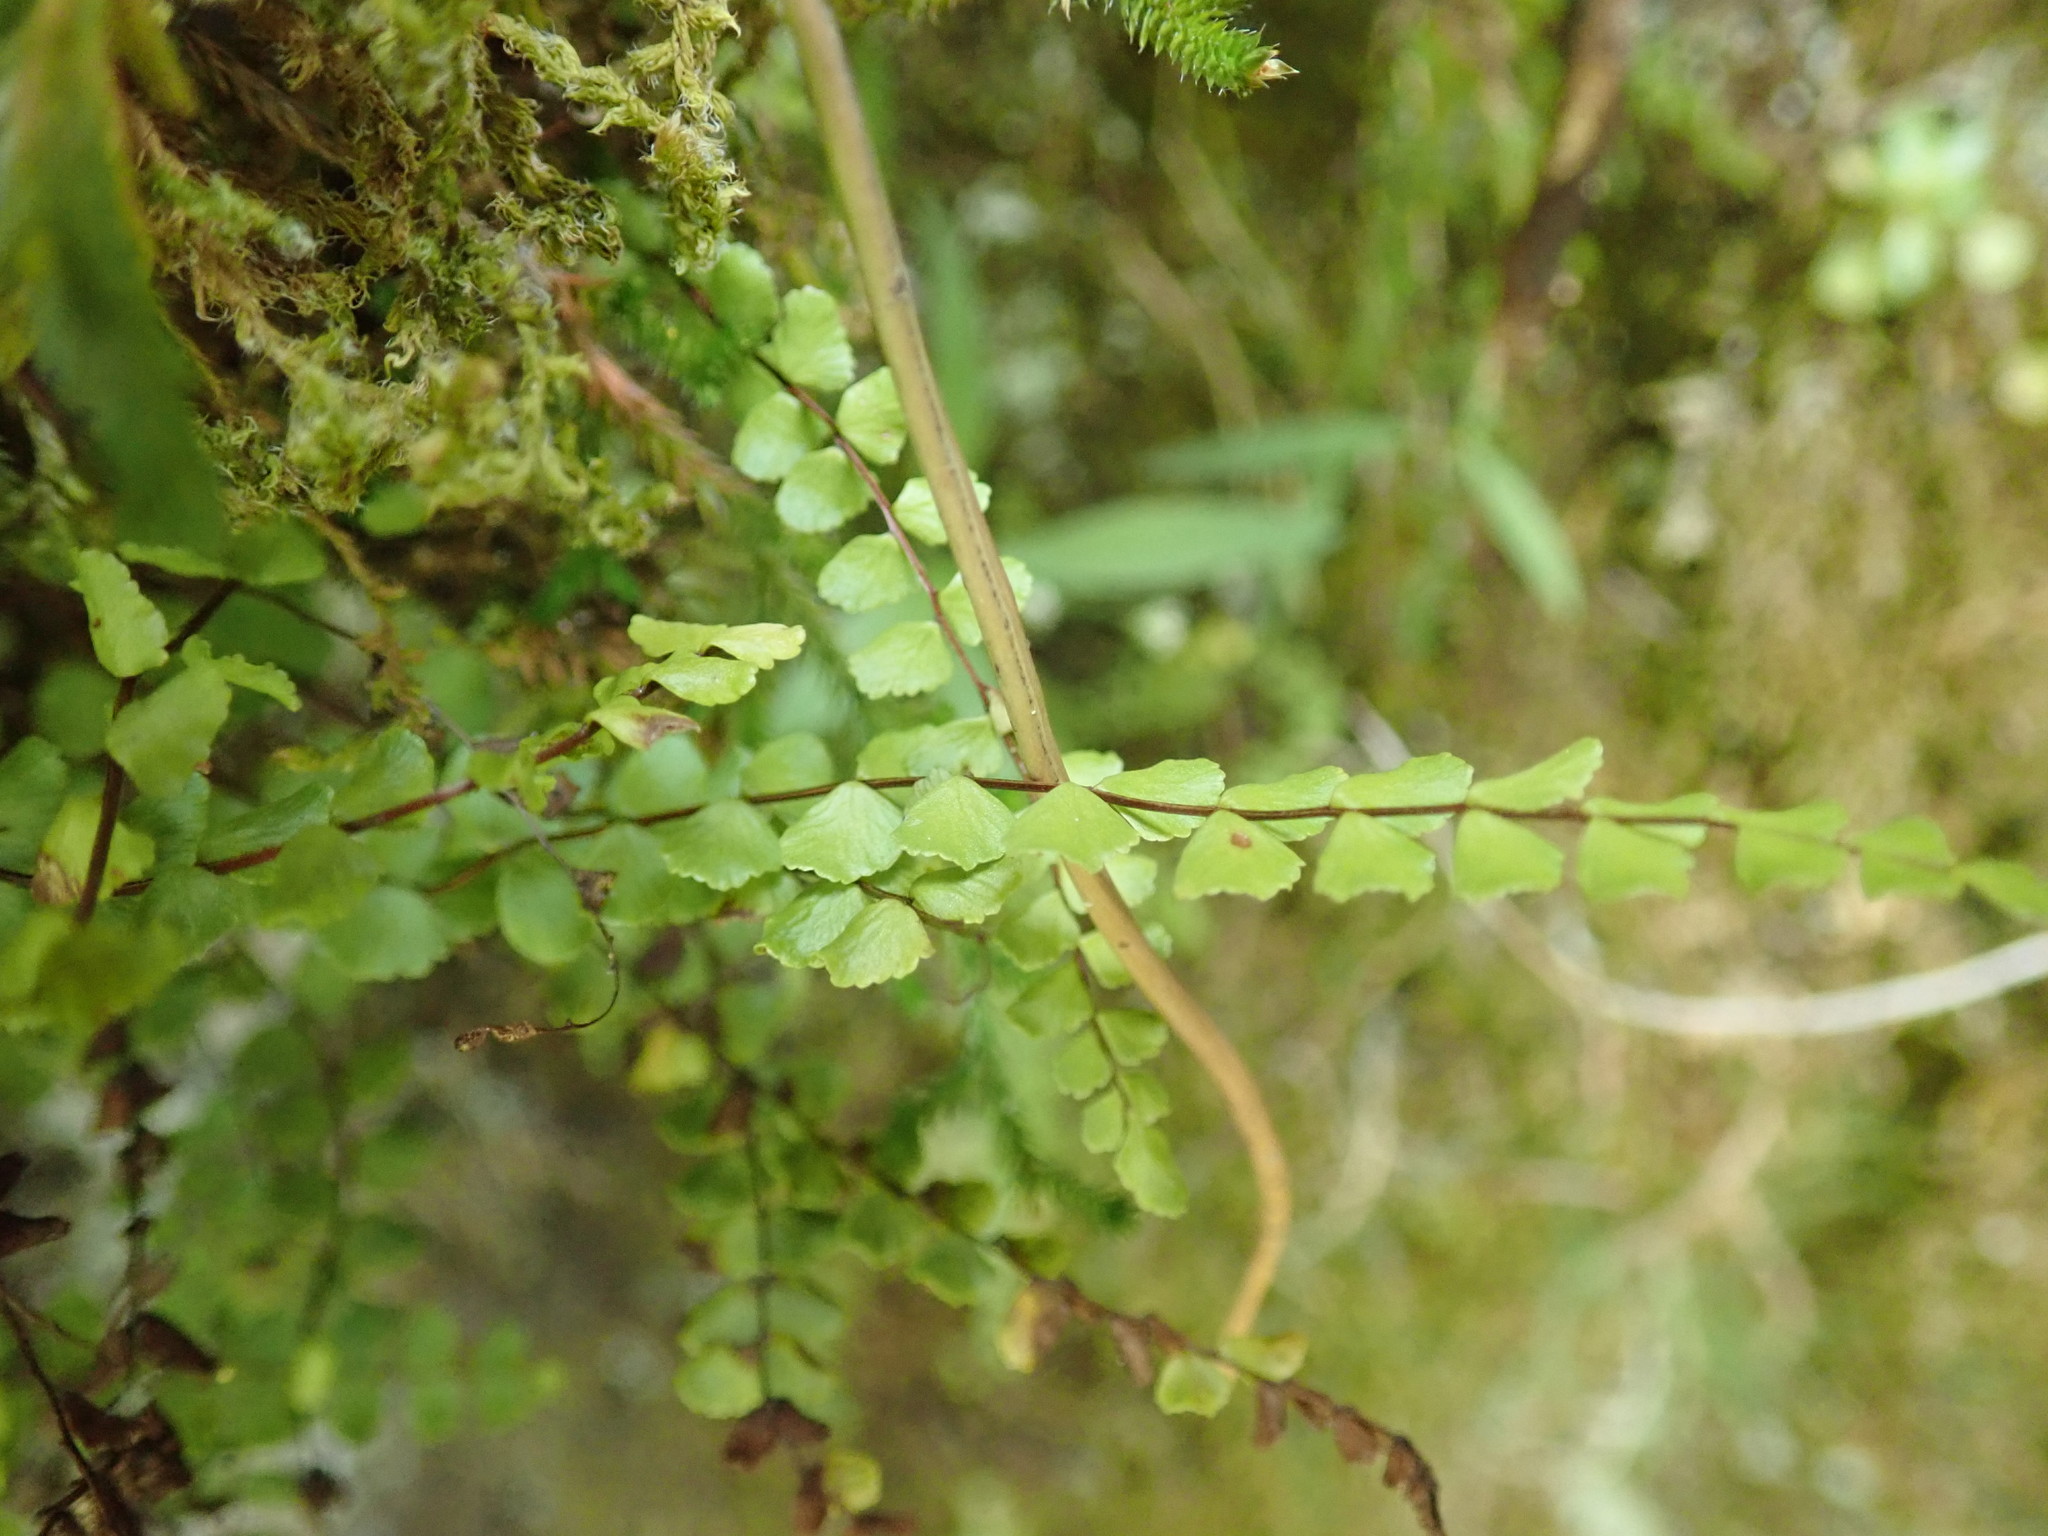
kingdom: Plantae
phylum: Tracheophyta
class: Polypodiopsida
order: Polypodiales
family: Aspleniaceae
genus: Asplenium
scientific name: Asplenium trichomanes
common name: Maidenhair spleenwort
